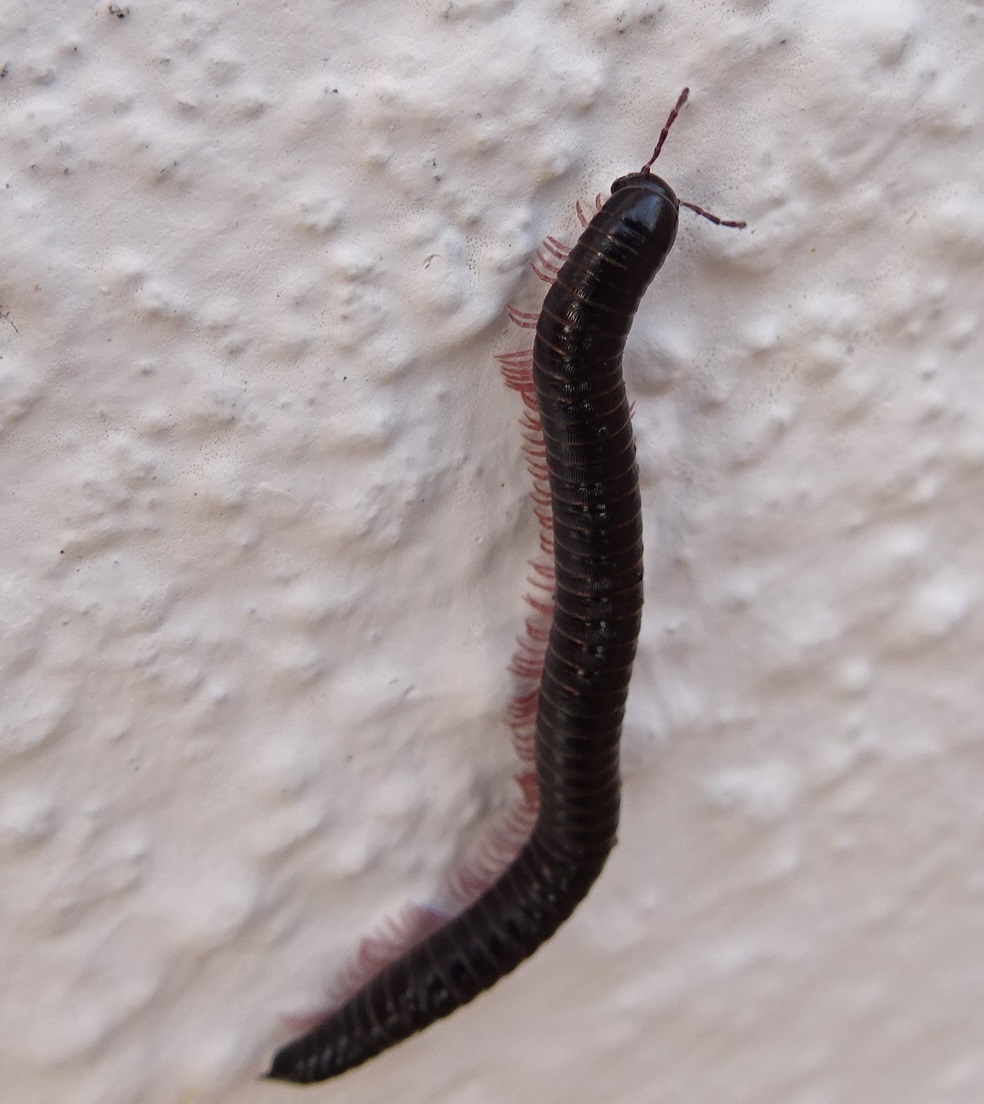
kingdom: Animalia
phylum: Arthropoda
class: Diplopoda
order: Julida
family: Julidae
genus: Ommatoiulus
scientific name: Ommatoiulus moreleti
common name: Portuguese millipede
